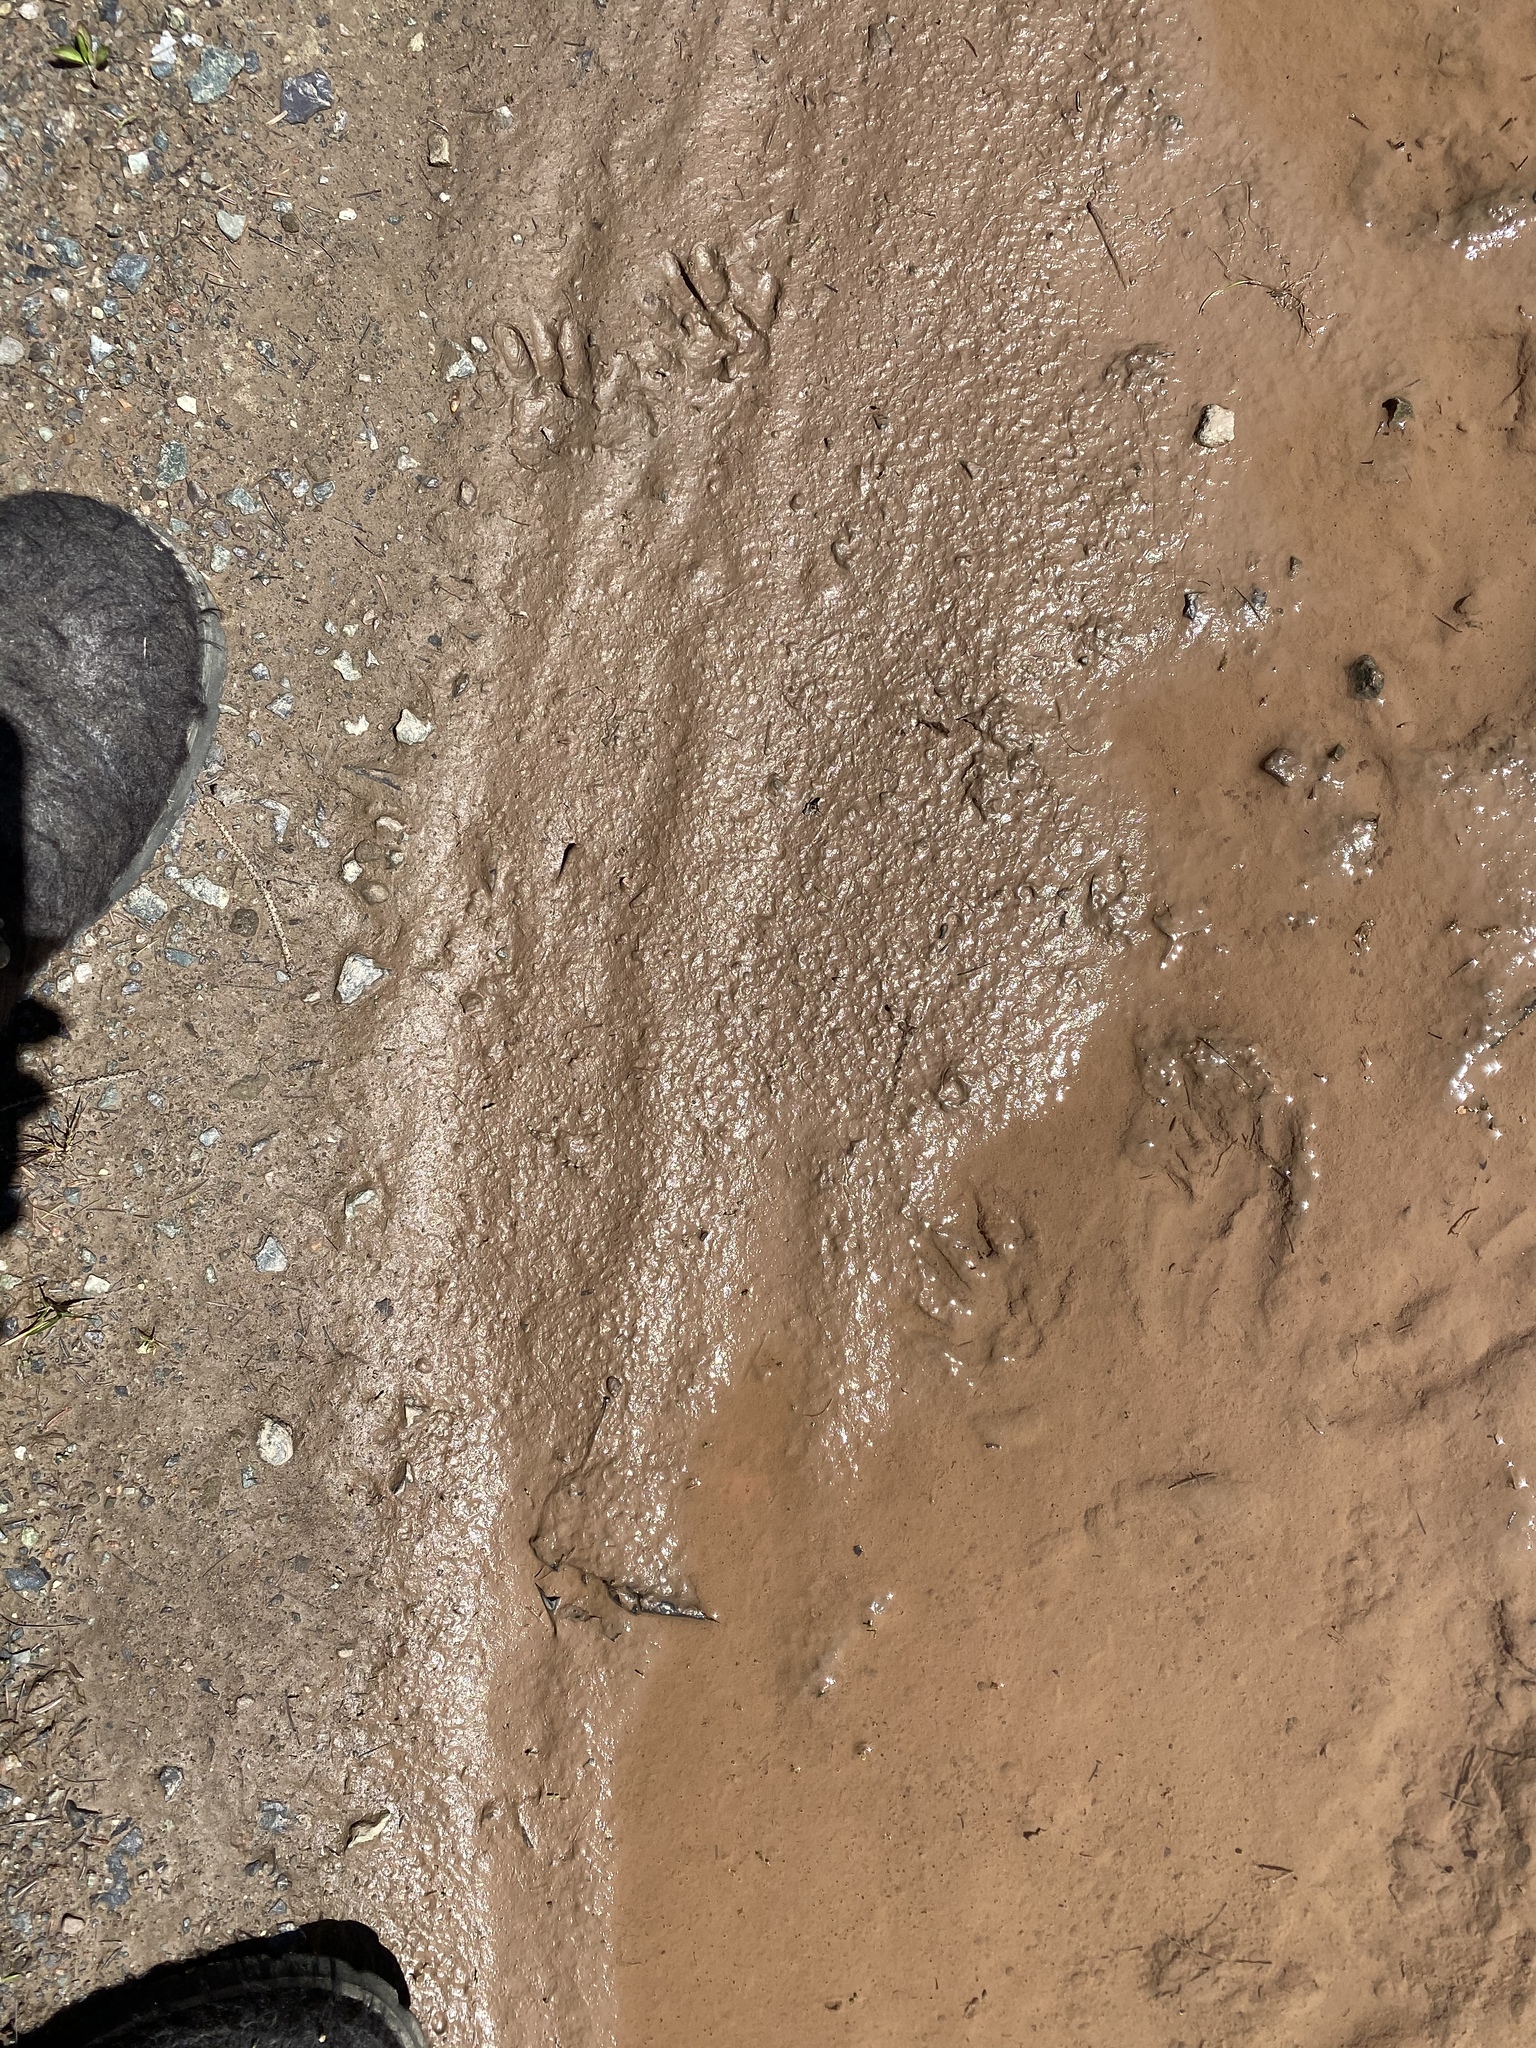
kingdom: Animalia
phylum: Chordata
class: Mammalia
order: Carnivora
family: Procyonidae
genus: Procyon
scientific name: Procyon lotor
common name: Raccoon
